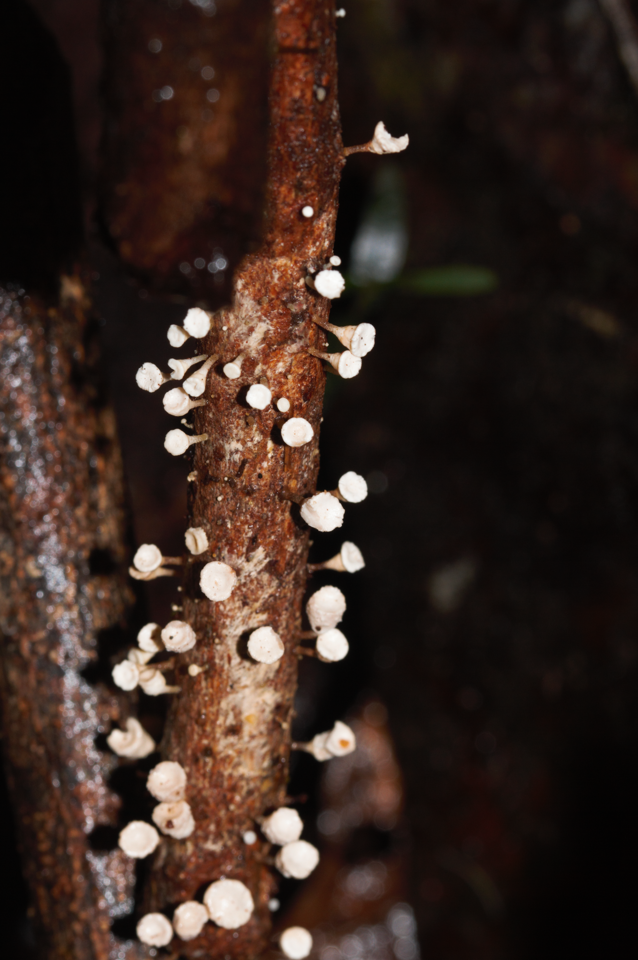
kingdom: Fungi
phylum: Basidiomycota
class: Agaricomycetes
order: Agaricales
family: Omphalotaceae
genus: Gymnopus
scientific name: Gymnopus montagnei
